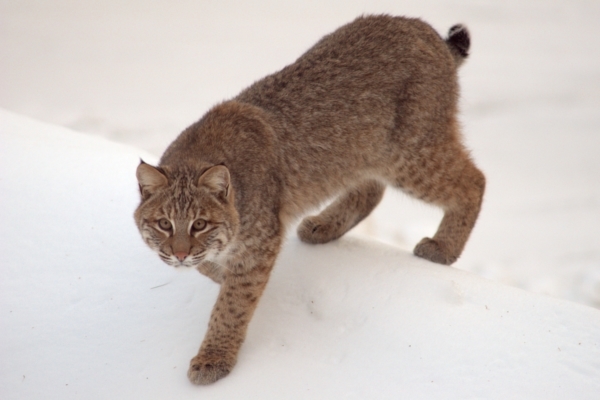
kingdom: Animalia
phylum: Chordata
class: Mammalia
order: Carnivora
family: Felidae
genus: Lynx
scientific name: Lynx rufus
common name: Bobcat
